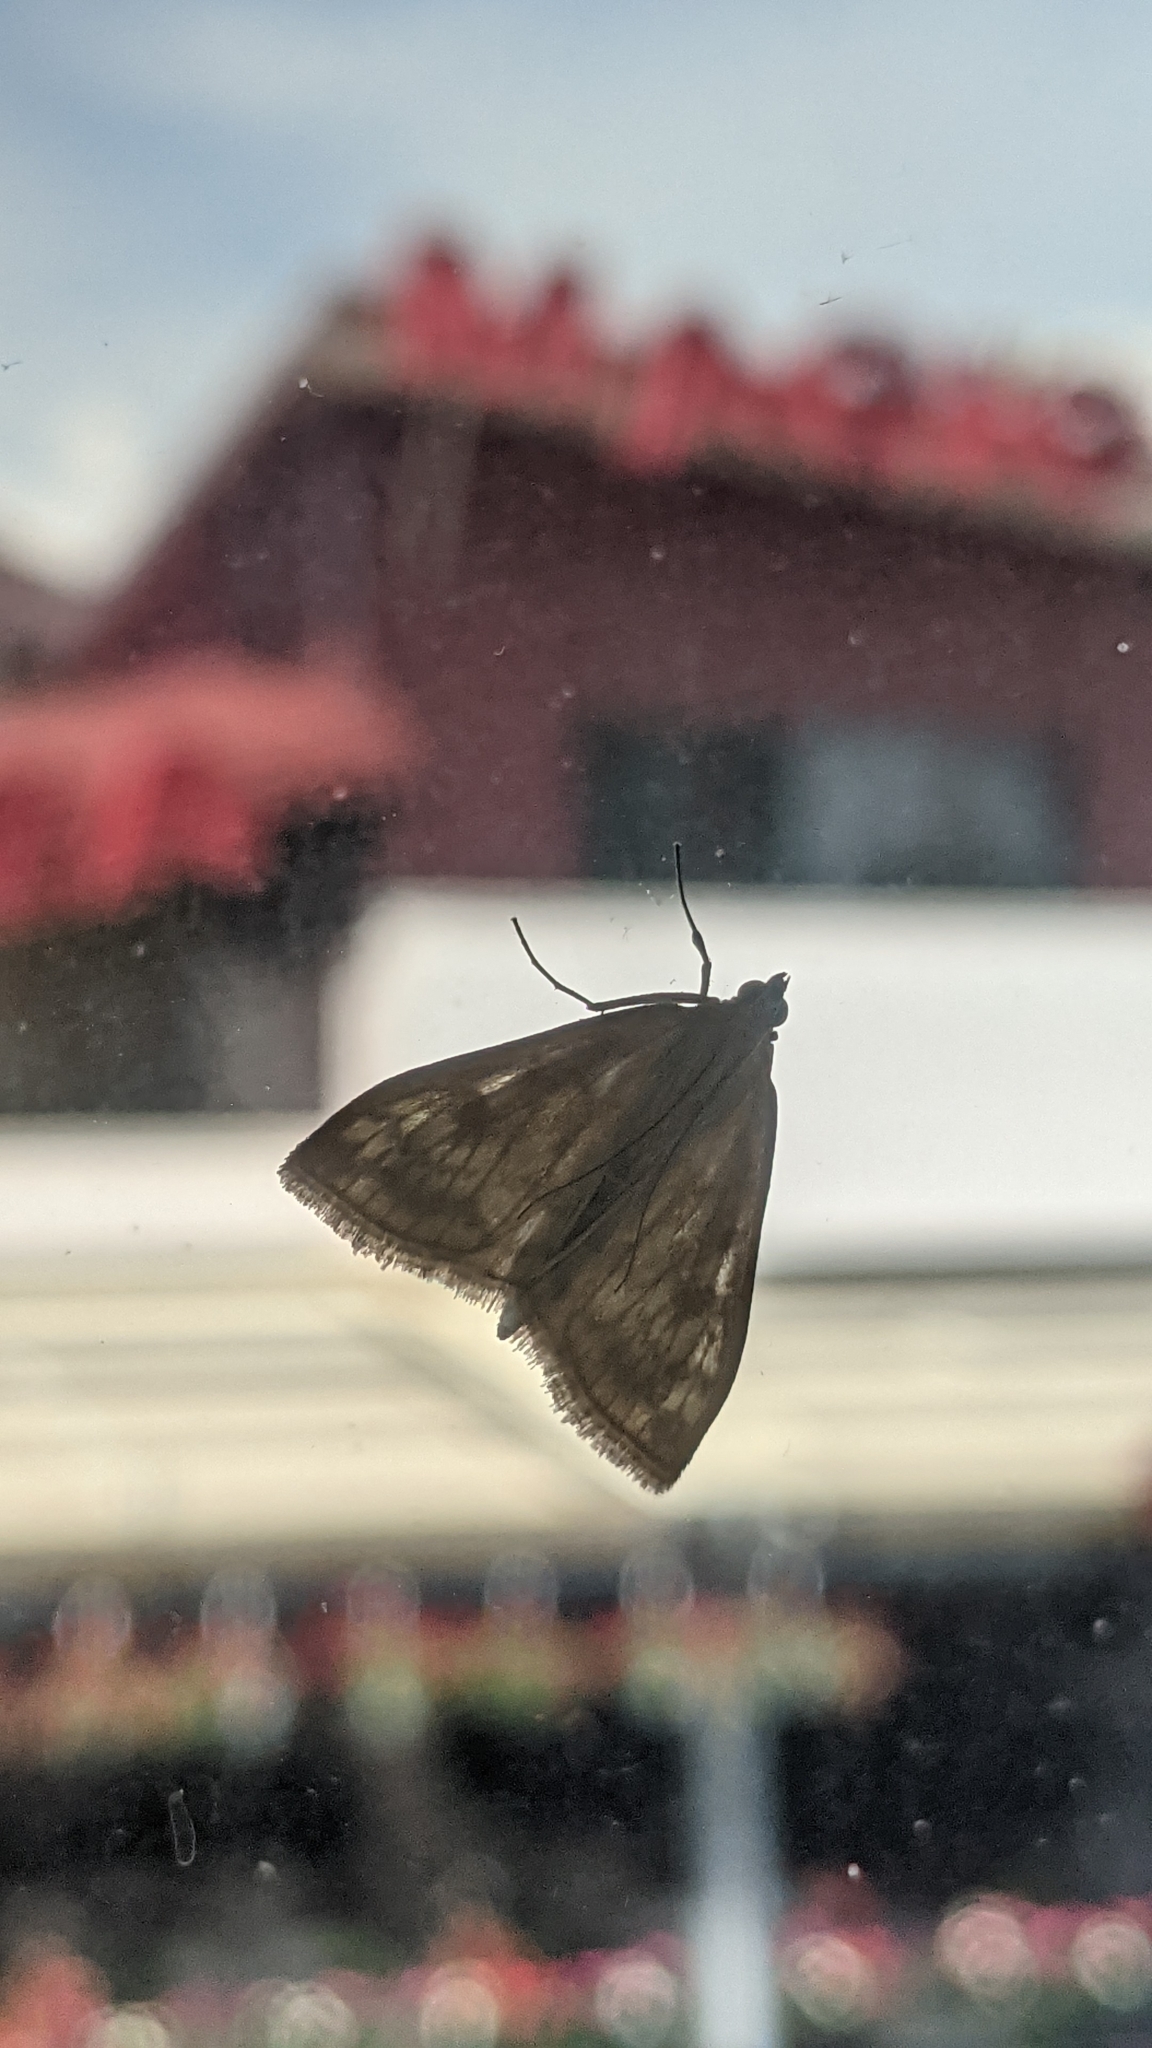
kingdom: Animalia
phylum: Arthropoda
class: Insecta
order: Lepidoptera
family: Crambidae
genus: Sitochroa
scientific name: Sitochroa verticalis
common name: Lesser pearl
